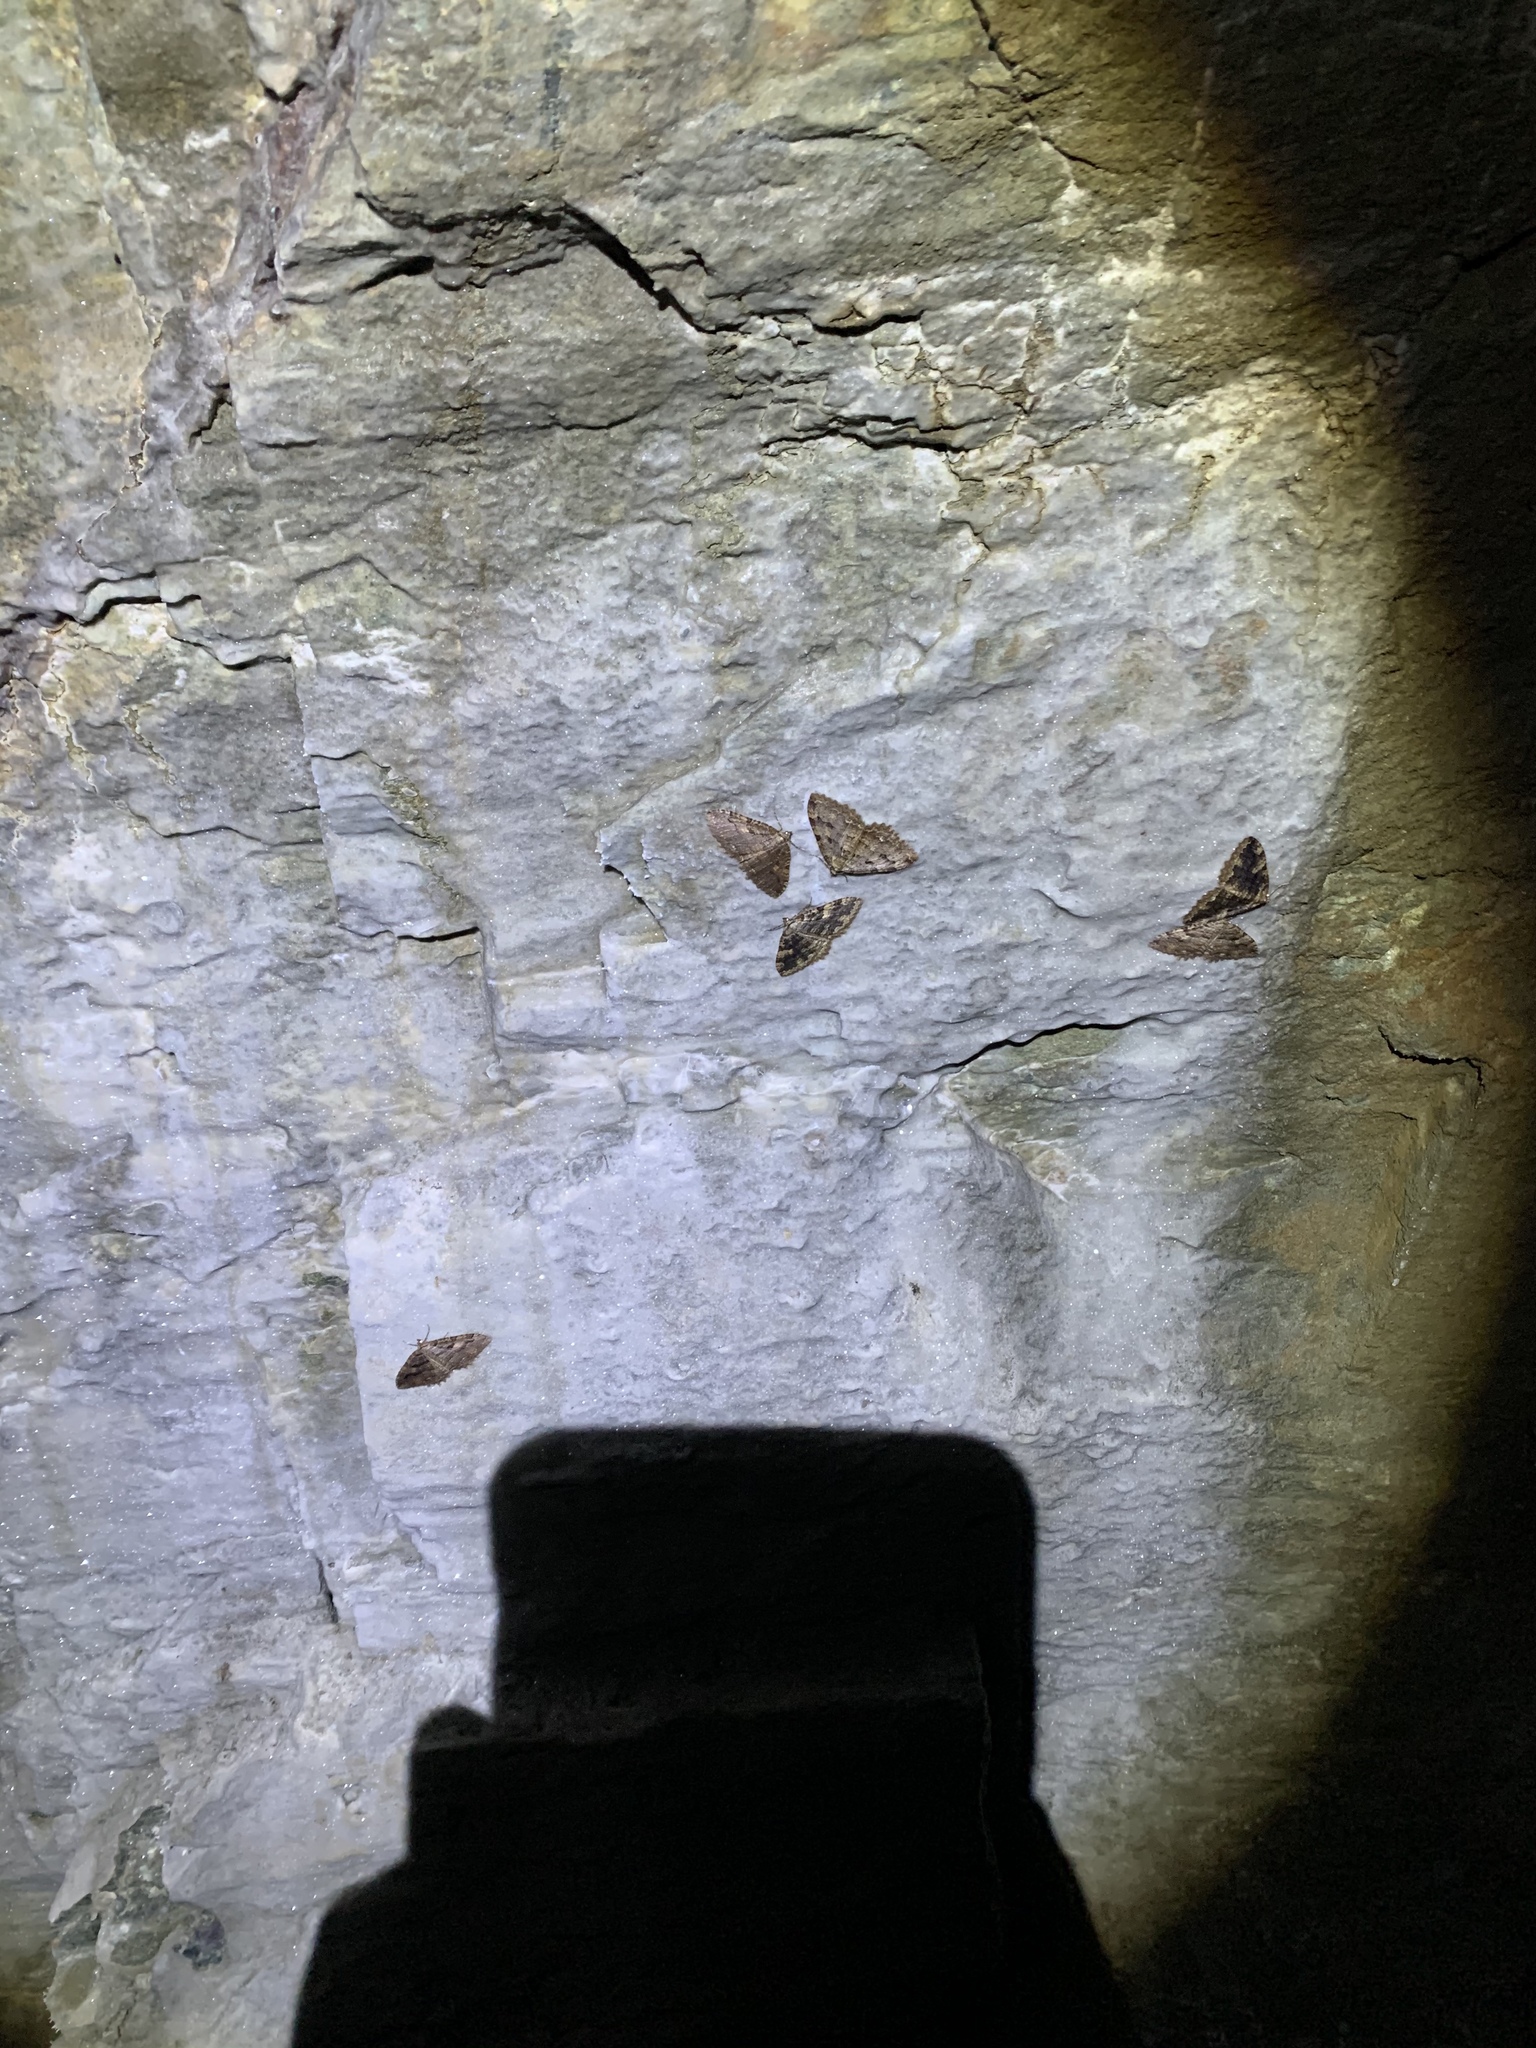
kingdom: Animalia
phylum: Arthropoda
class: Insecta
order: Lepidoptera
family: Geometridae
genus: Triphosa
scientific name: Triphosa haesitata
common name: Tissue moth
